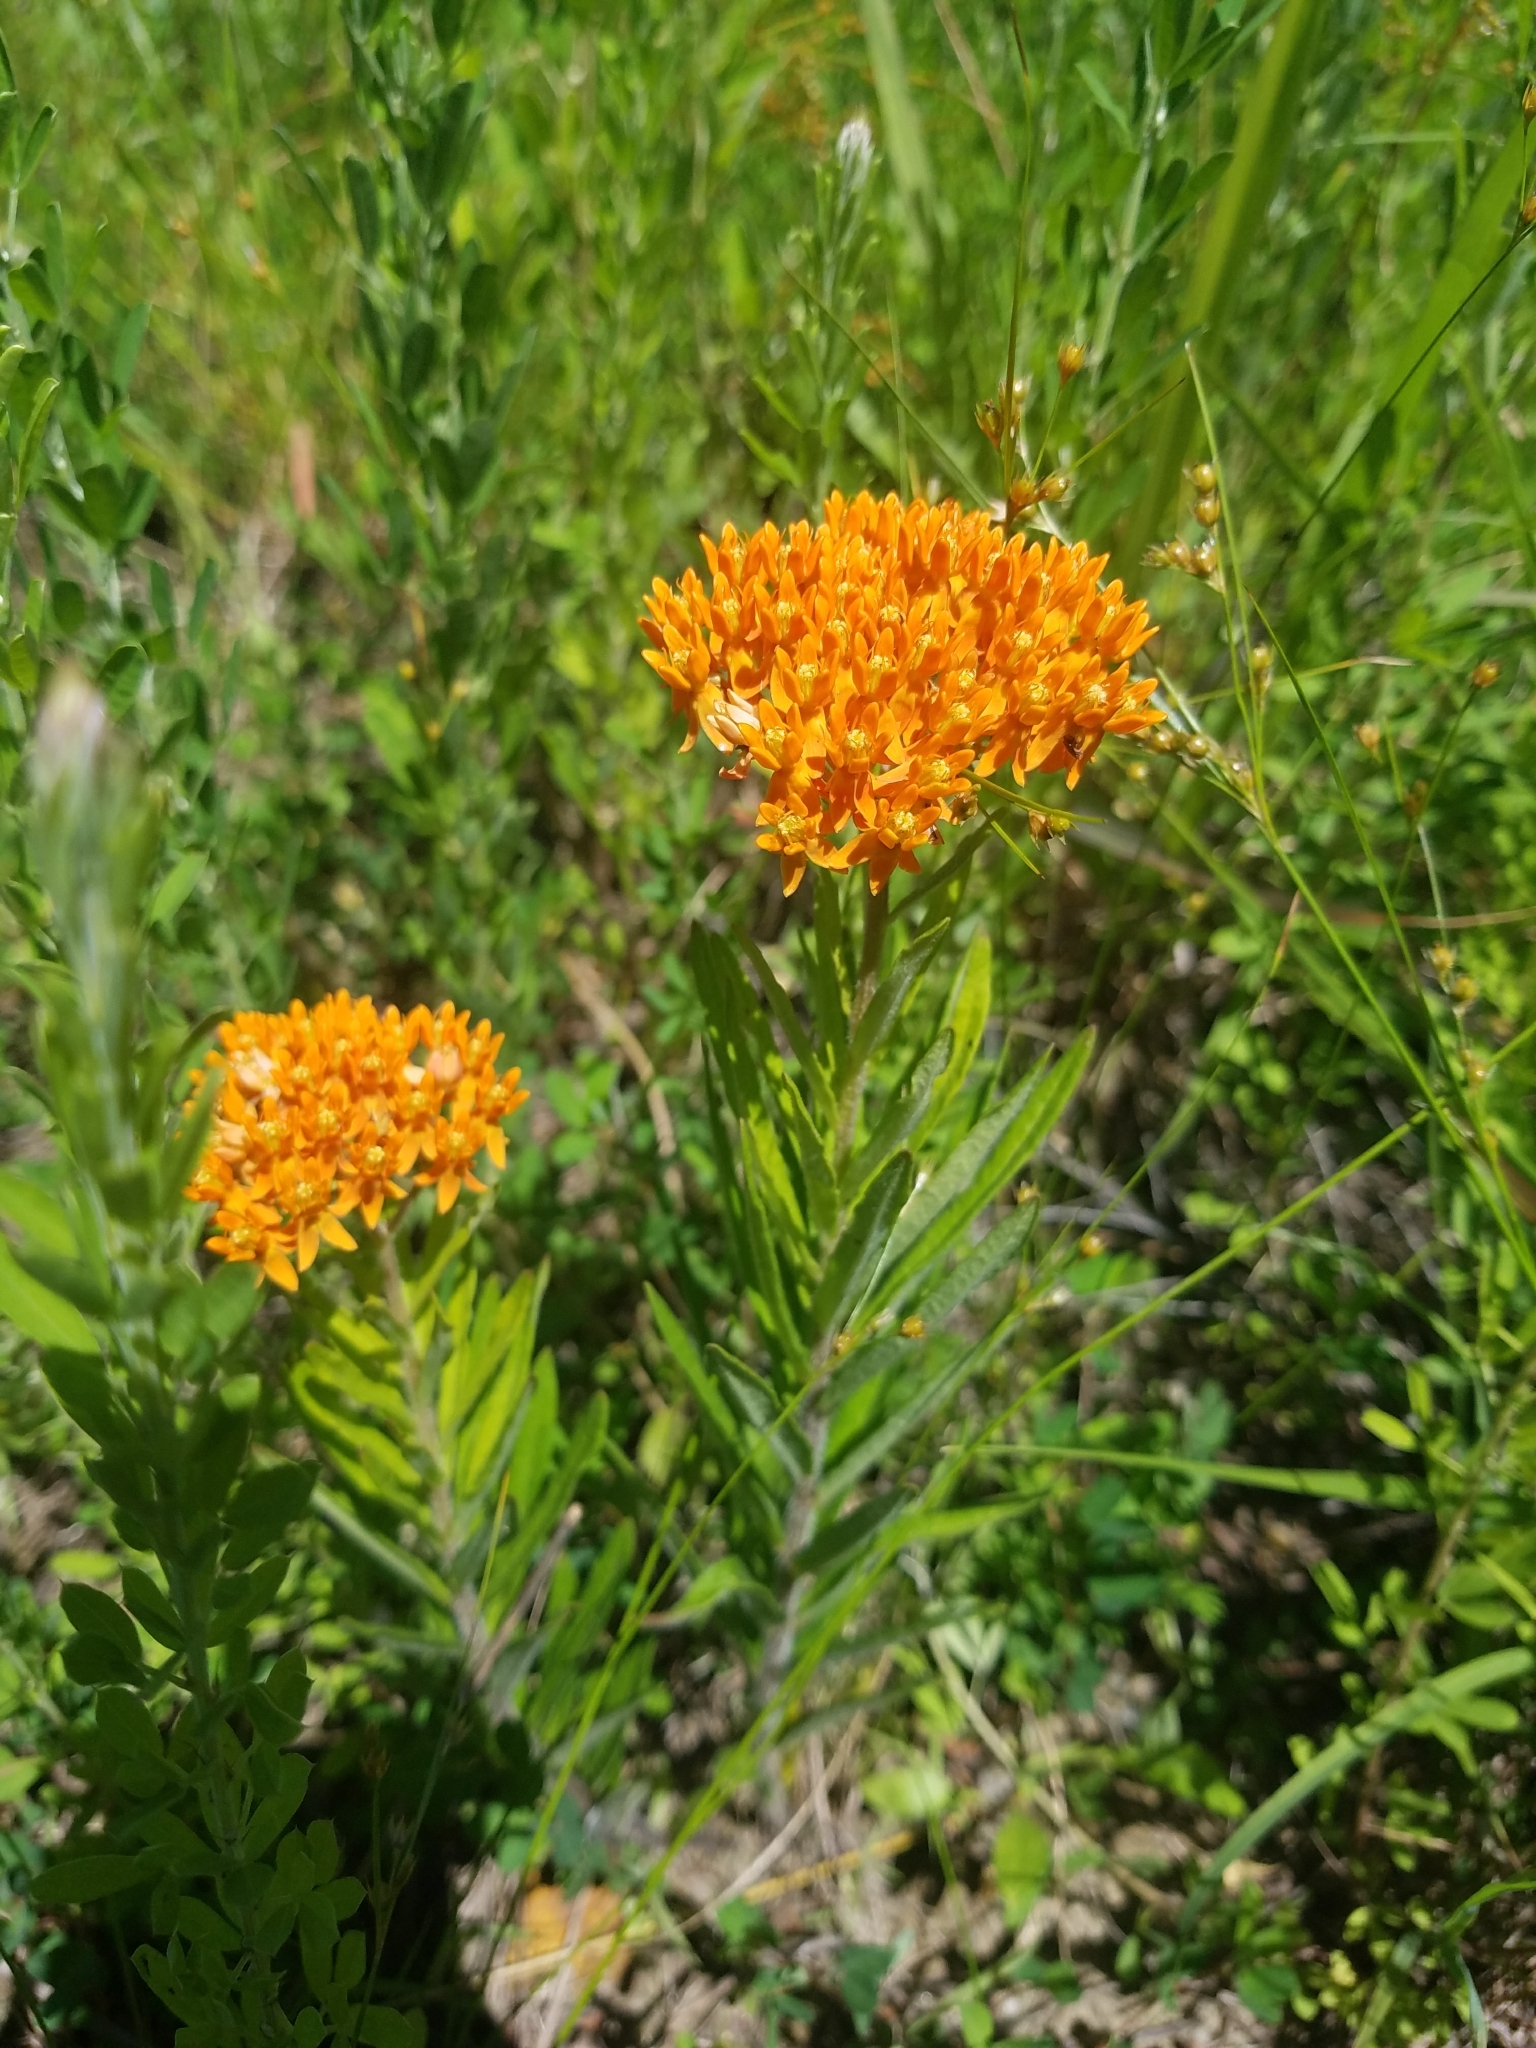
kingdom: Plantae
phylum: Tracheophyta
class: Magnoliopsida
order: Gentianales
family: Apocynaceae
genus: Asclepias
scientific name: Asclepias tuberosa
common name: Butterfly milkweed
